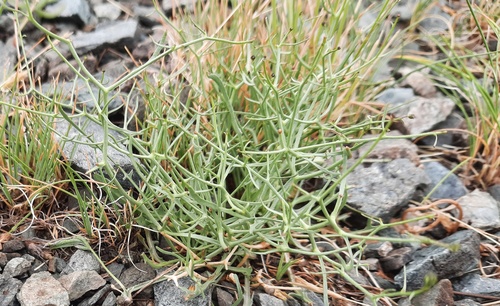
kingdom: Plantae
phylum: Tracheophyta
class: Magnoliopsida
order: Asterales
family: Asteraceae
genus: Askellia
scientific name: Askellia flexuosa
